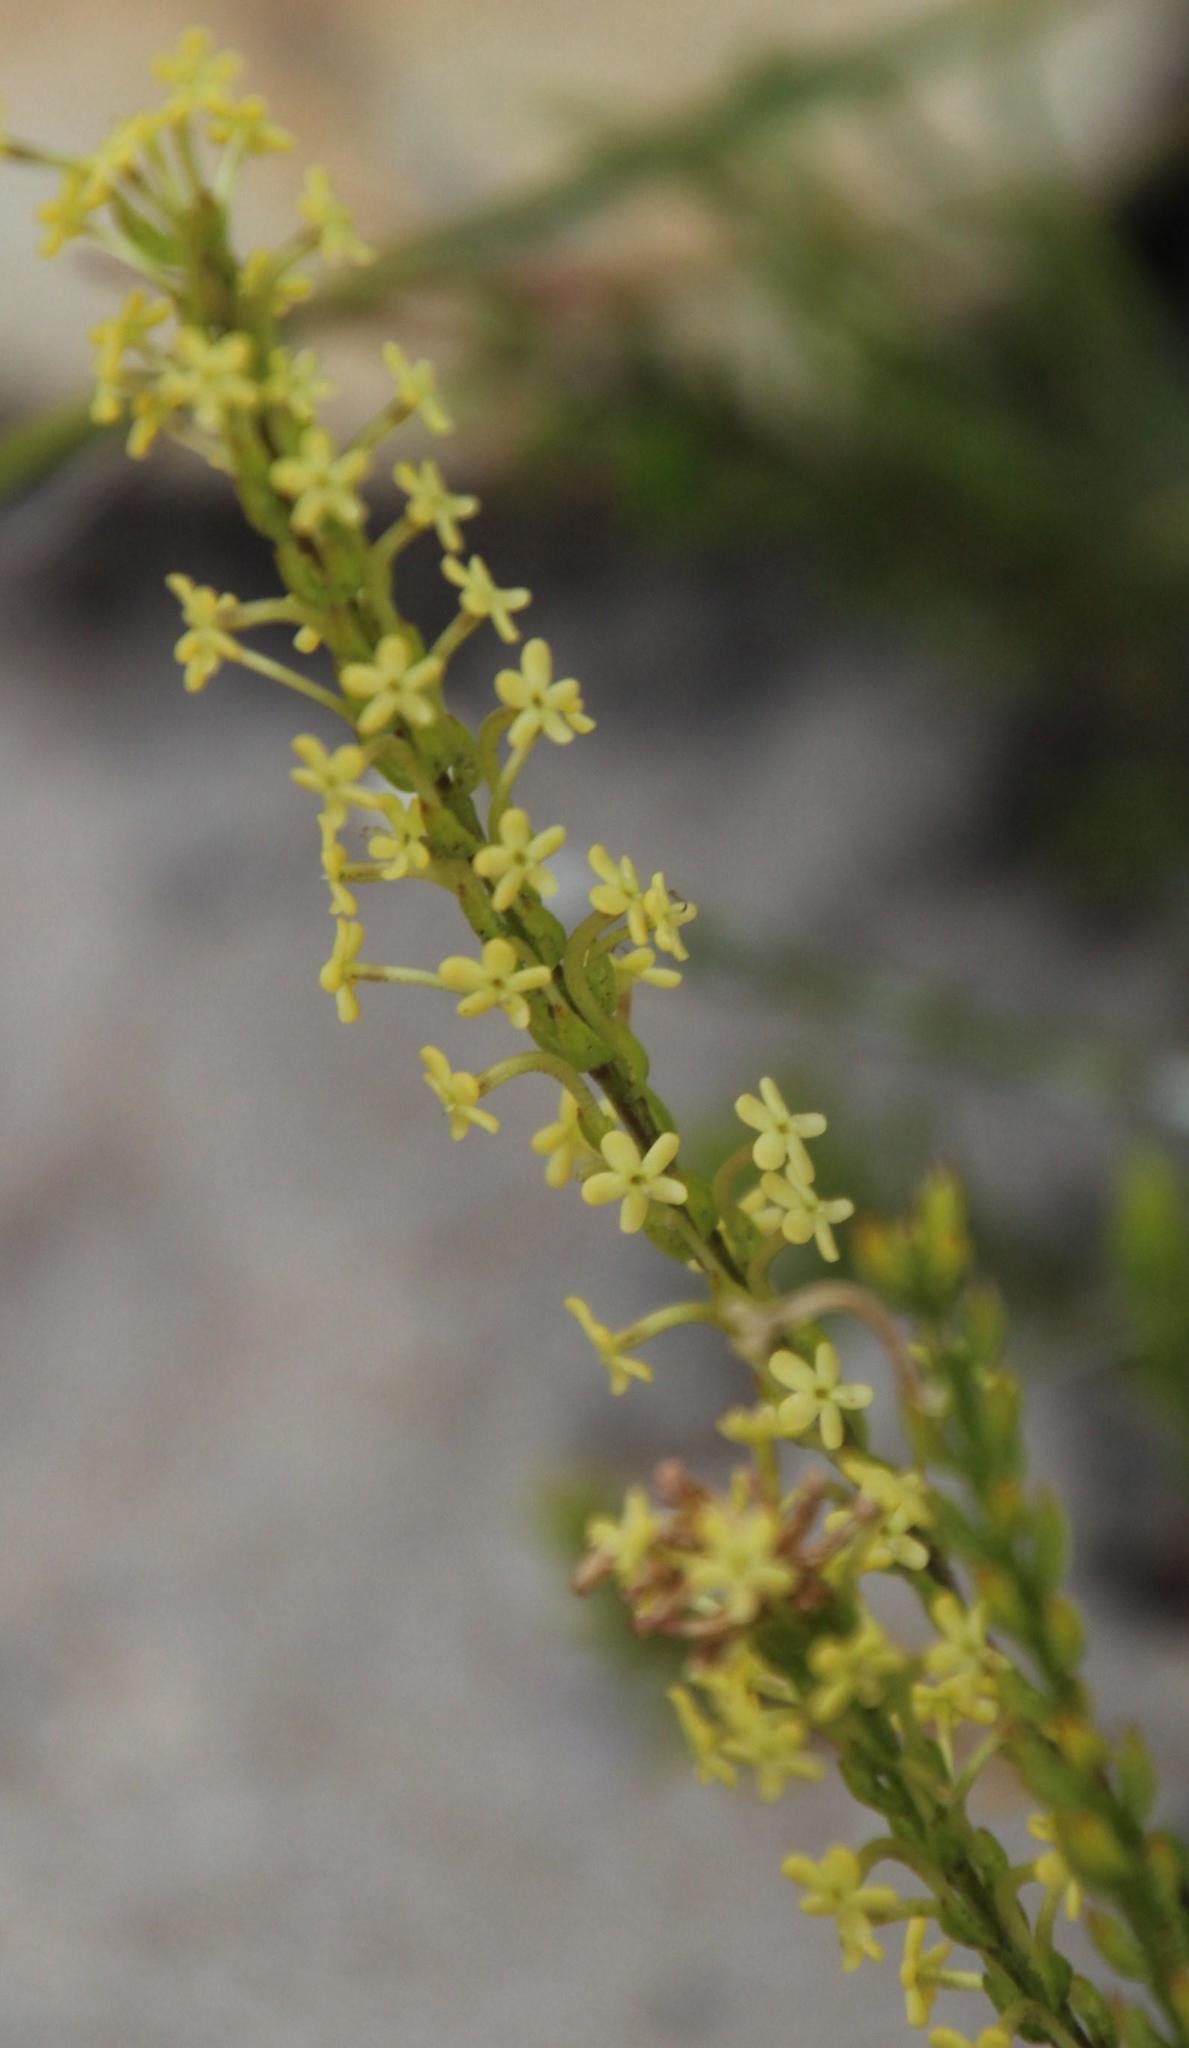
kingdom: Plantae
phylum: Tracheophyta
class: Magnoliopsida
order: Lamiales
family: Scrophulariaceae
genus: Microdon
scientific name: Microdon dubius
